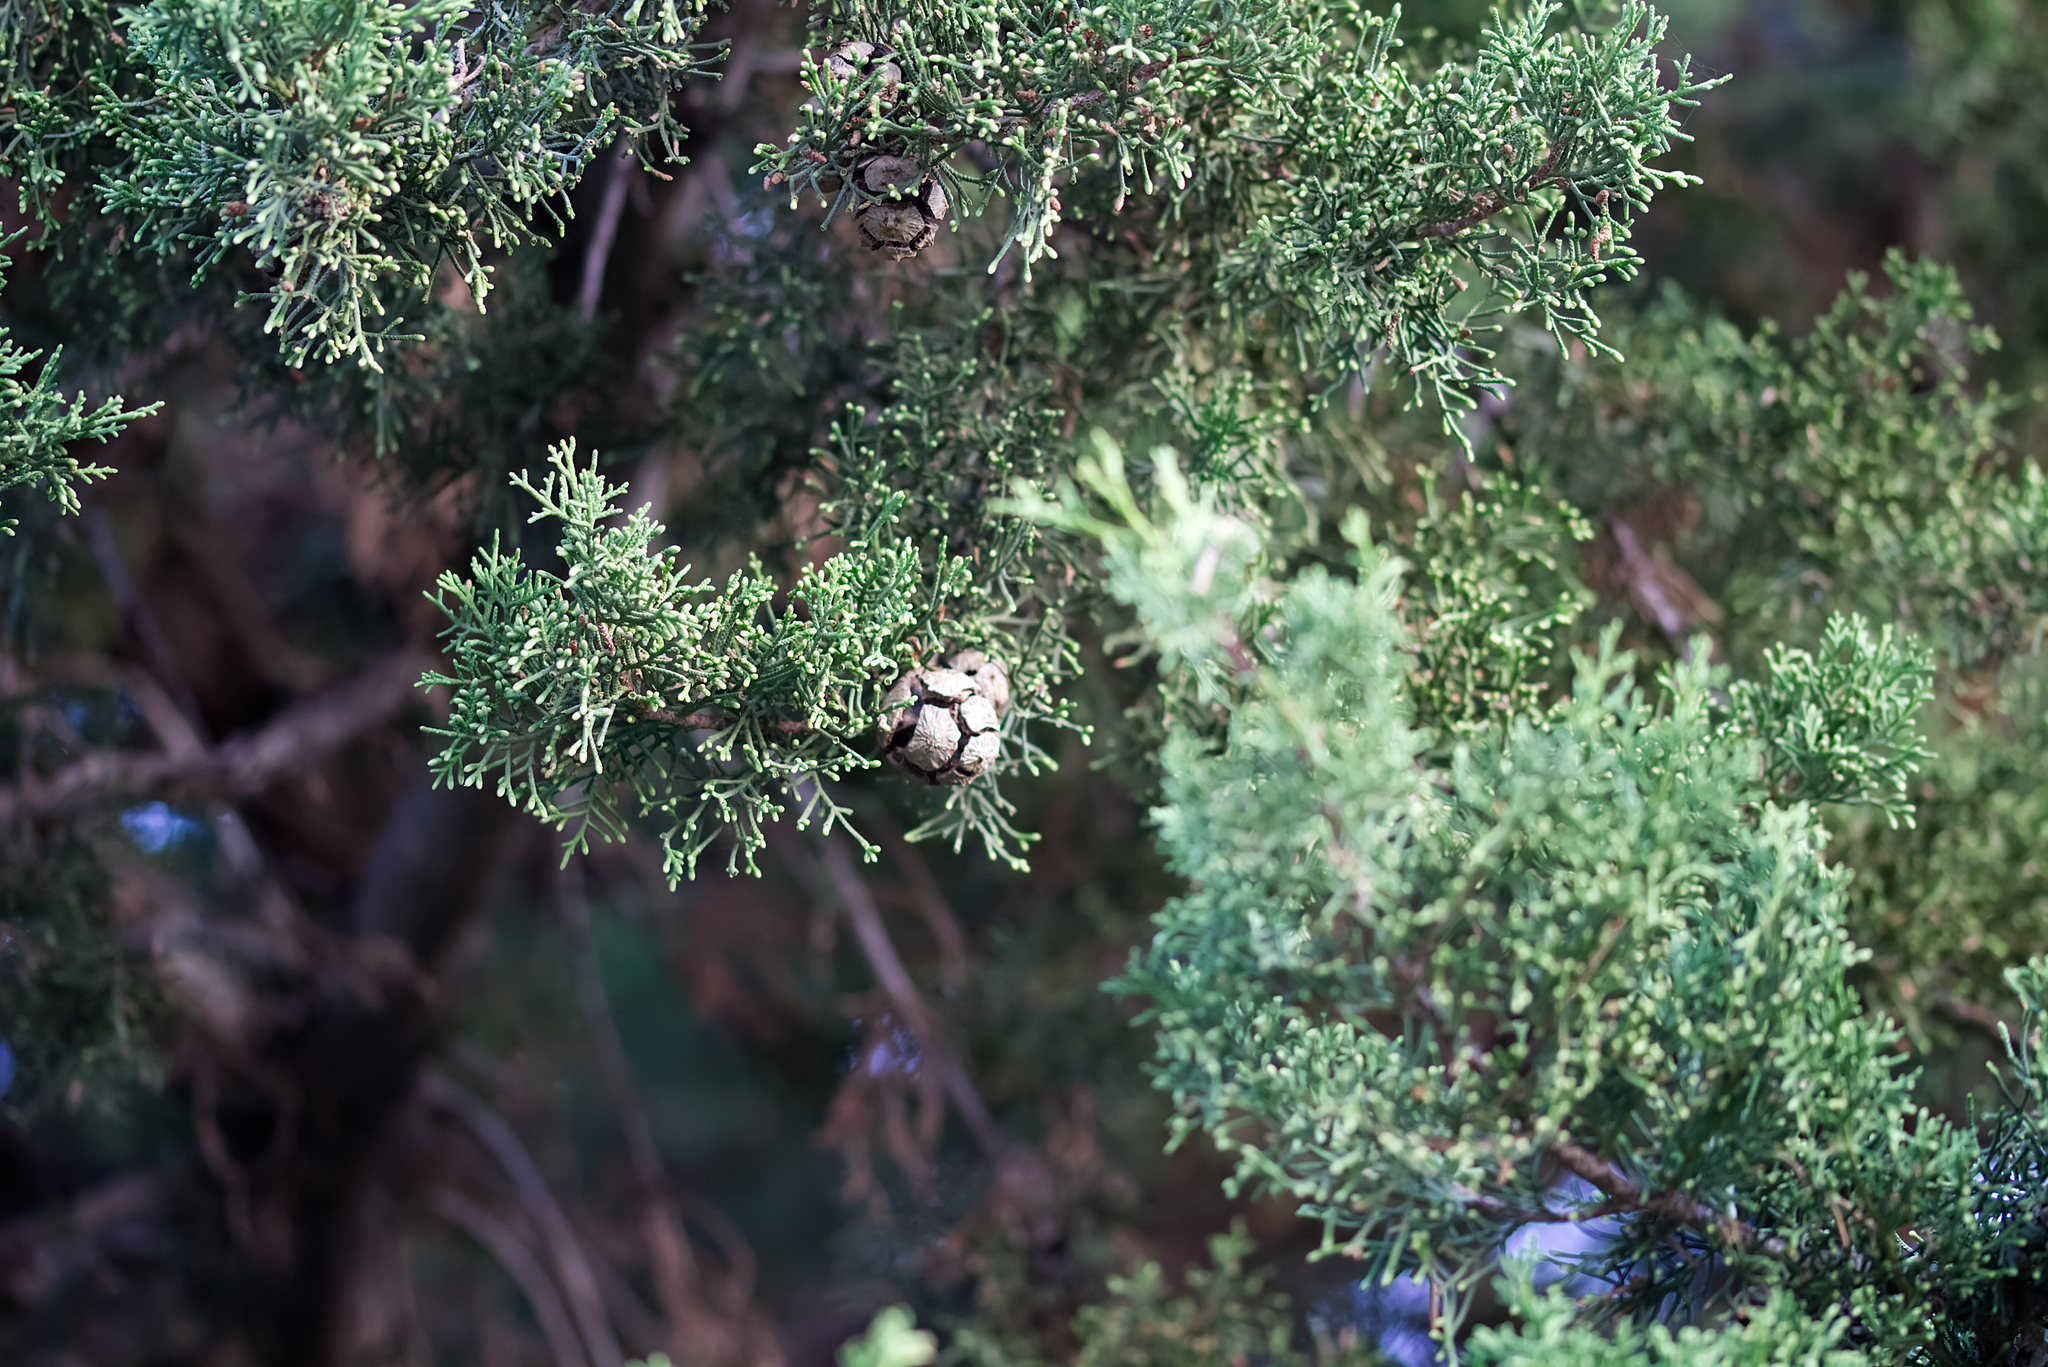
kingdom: Plantae
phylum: Tracheophyta
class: Pinopsida
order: Pinales
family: Cupressaceae
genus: Cupressus
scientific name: Cupressus sempervirens
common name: Italian cypress
